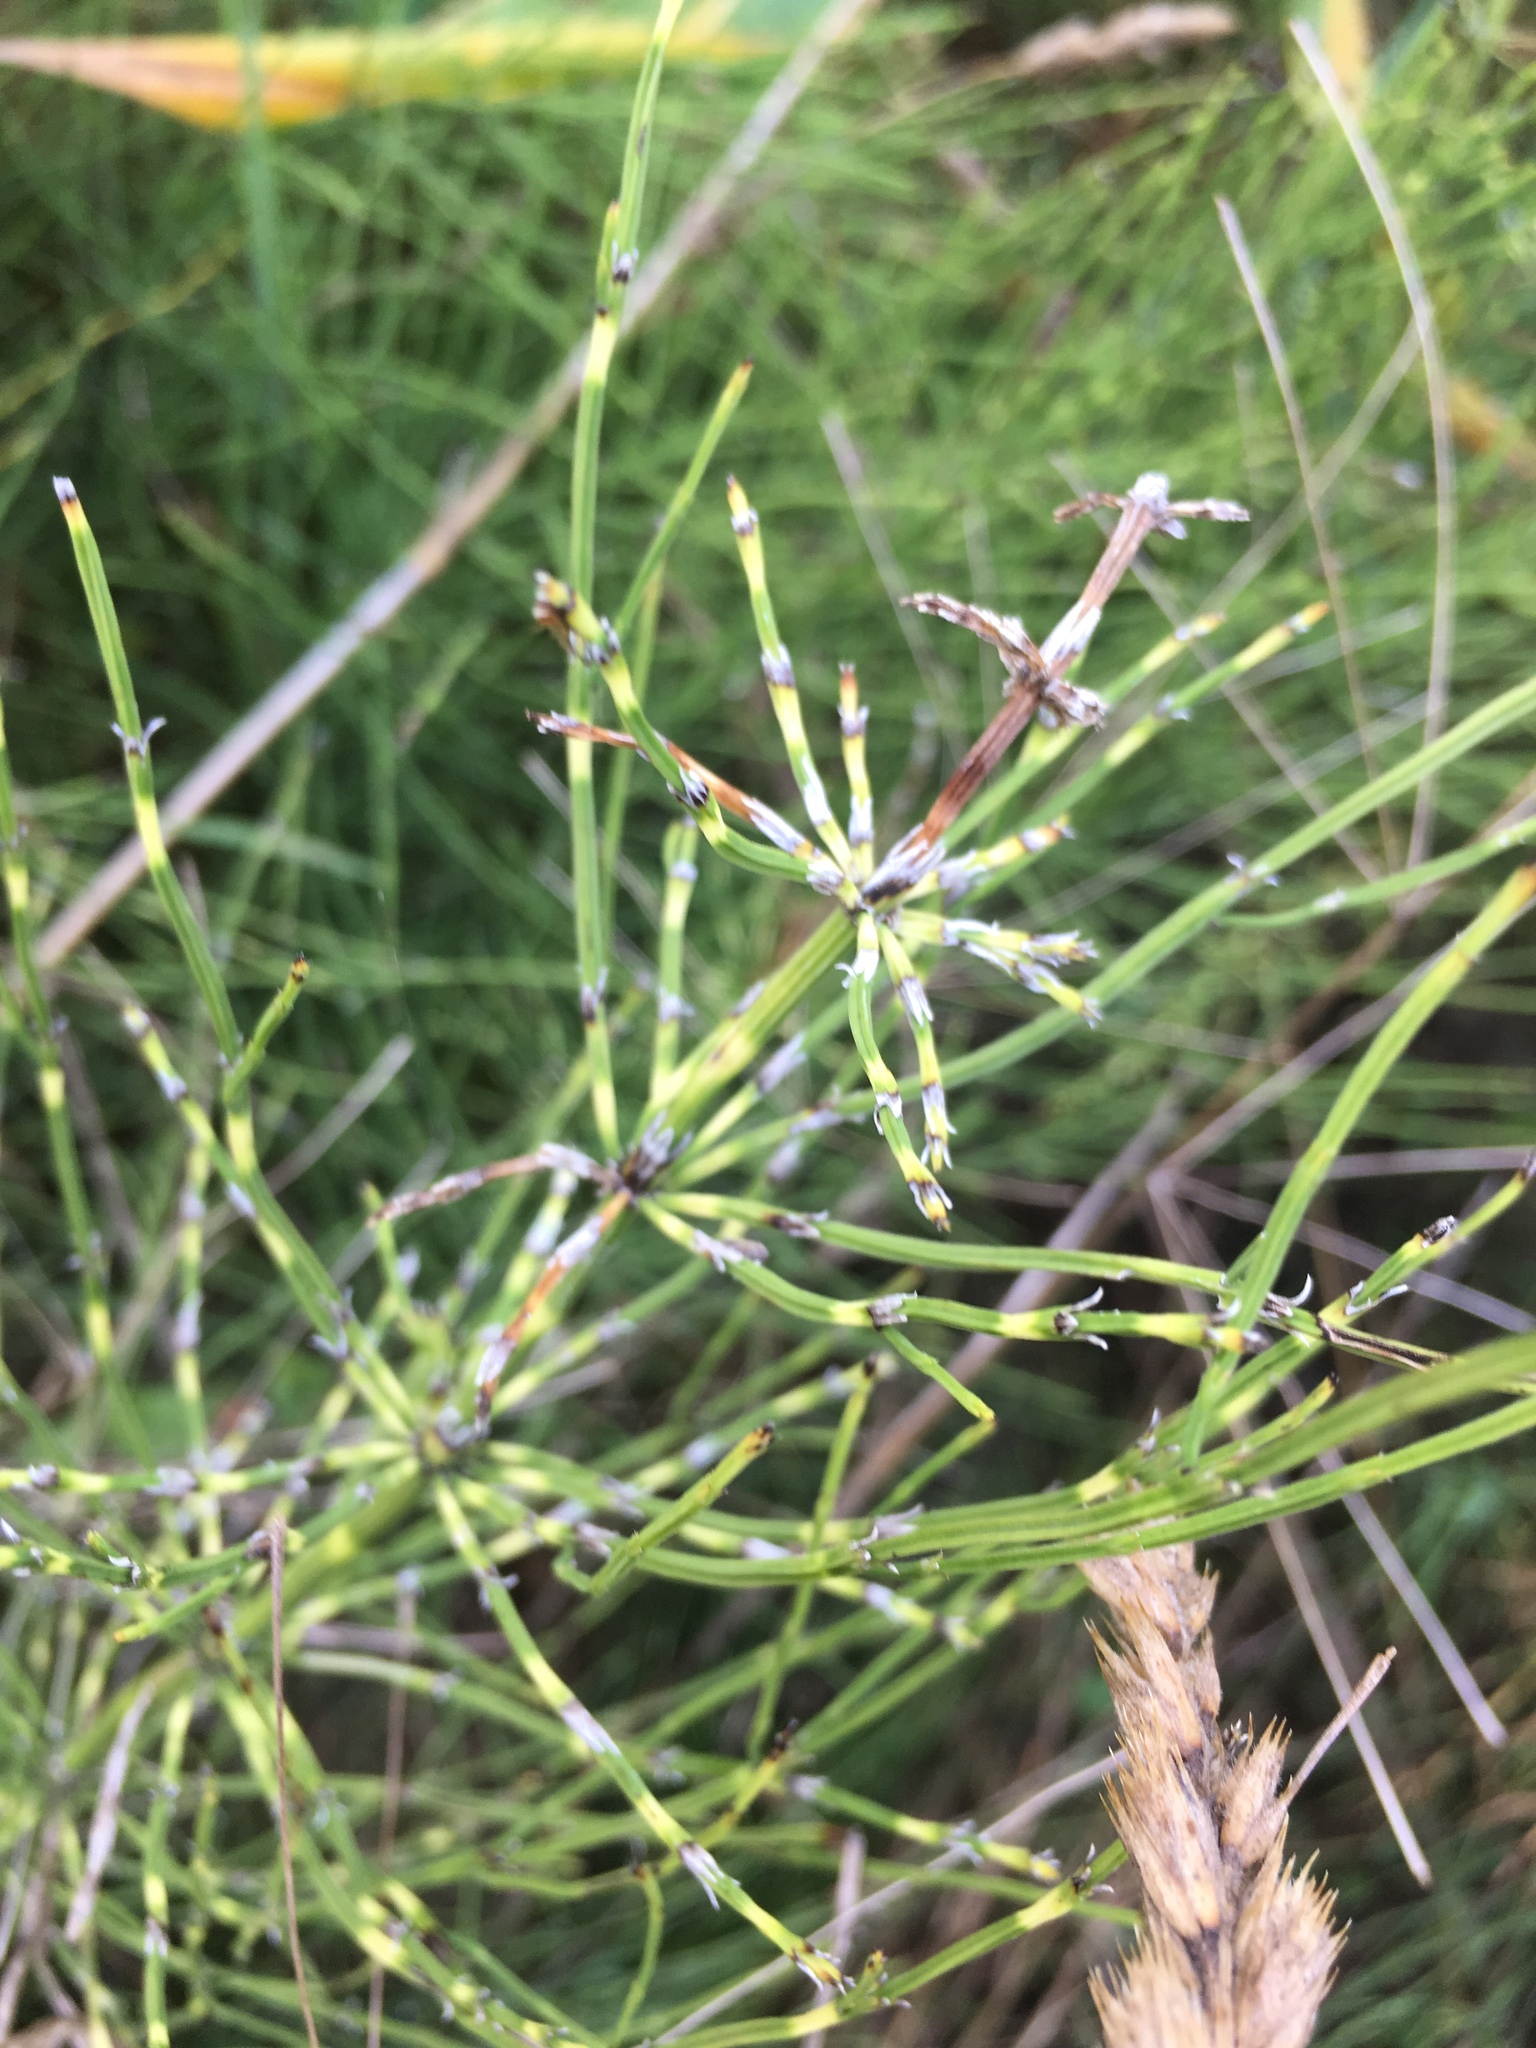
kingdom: Plantae
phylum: Tracheophyta
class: Polypodiopsida
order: Equisetales
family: Equisetaceae
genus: Equisetum
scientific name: Equisetum arvense
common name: Field horsetail
